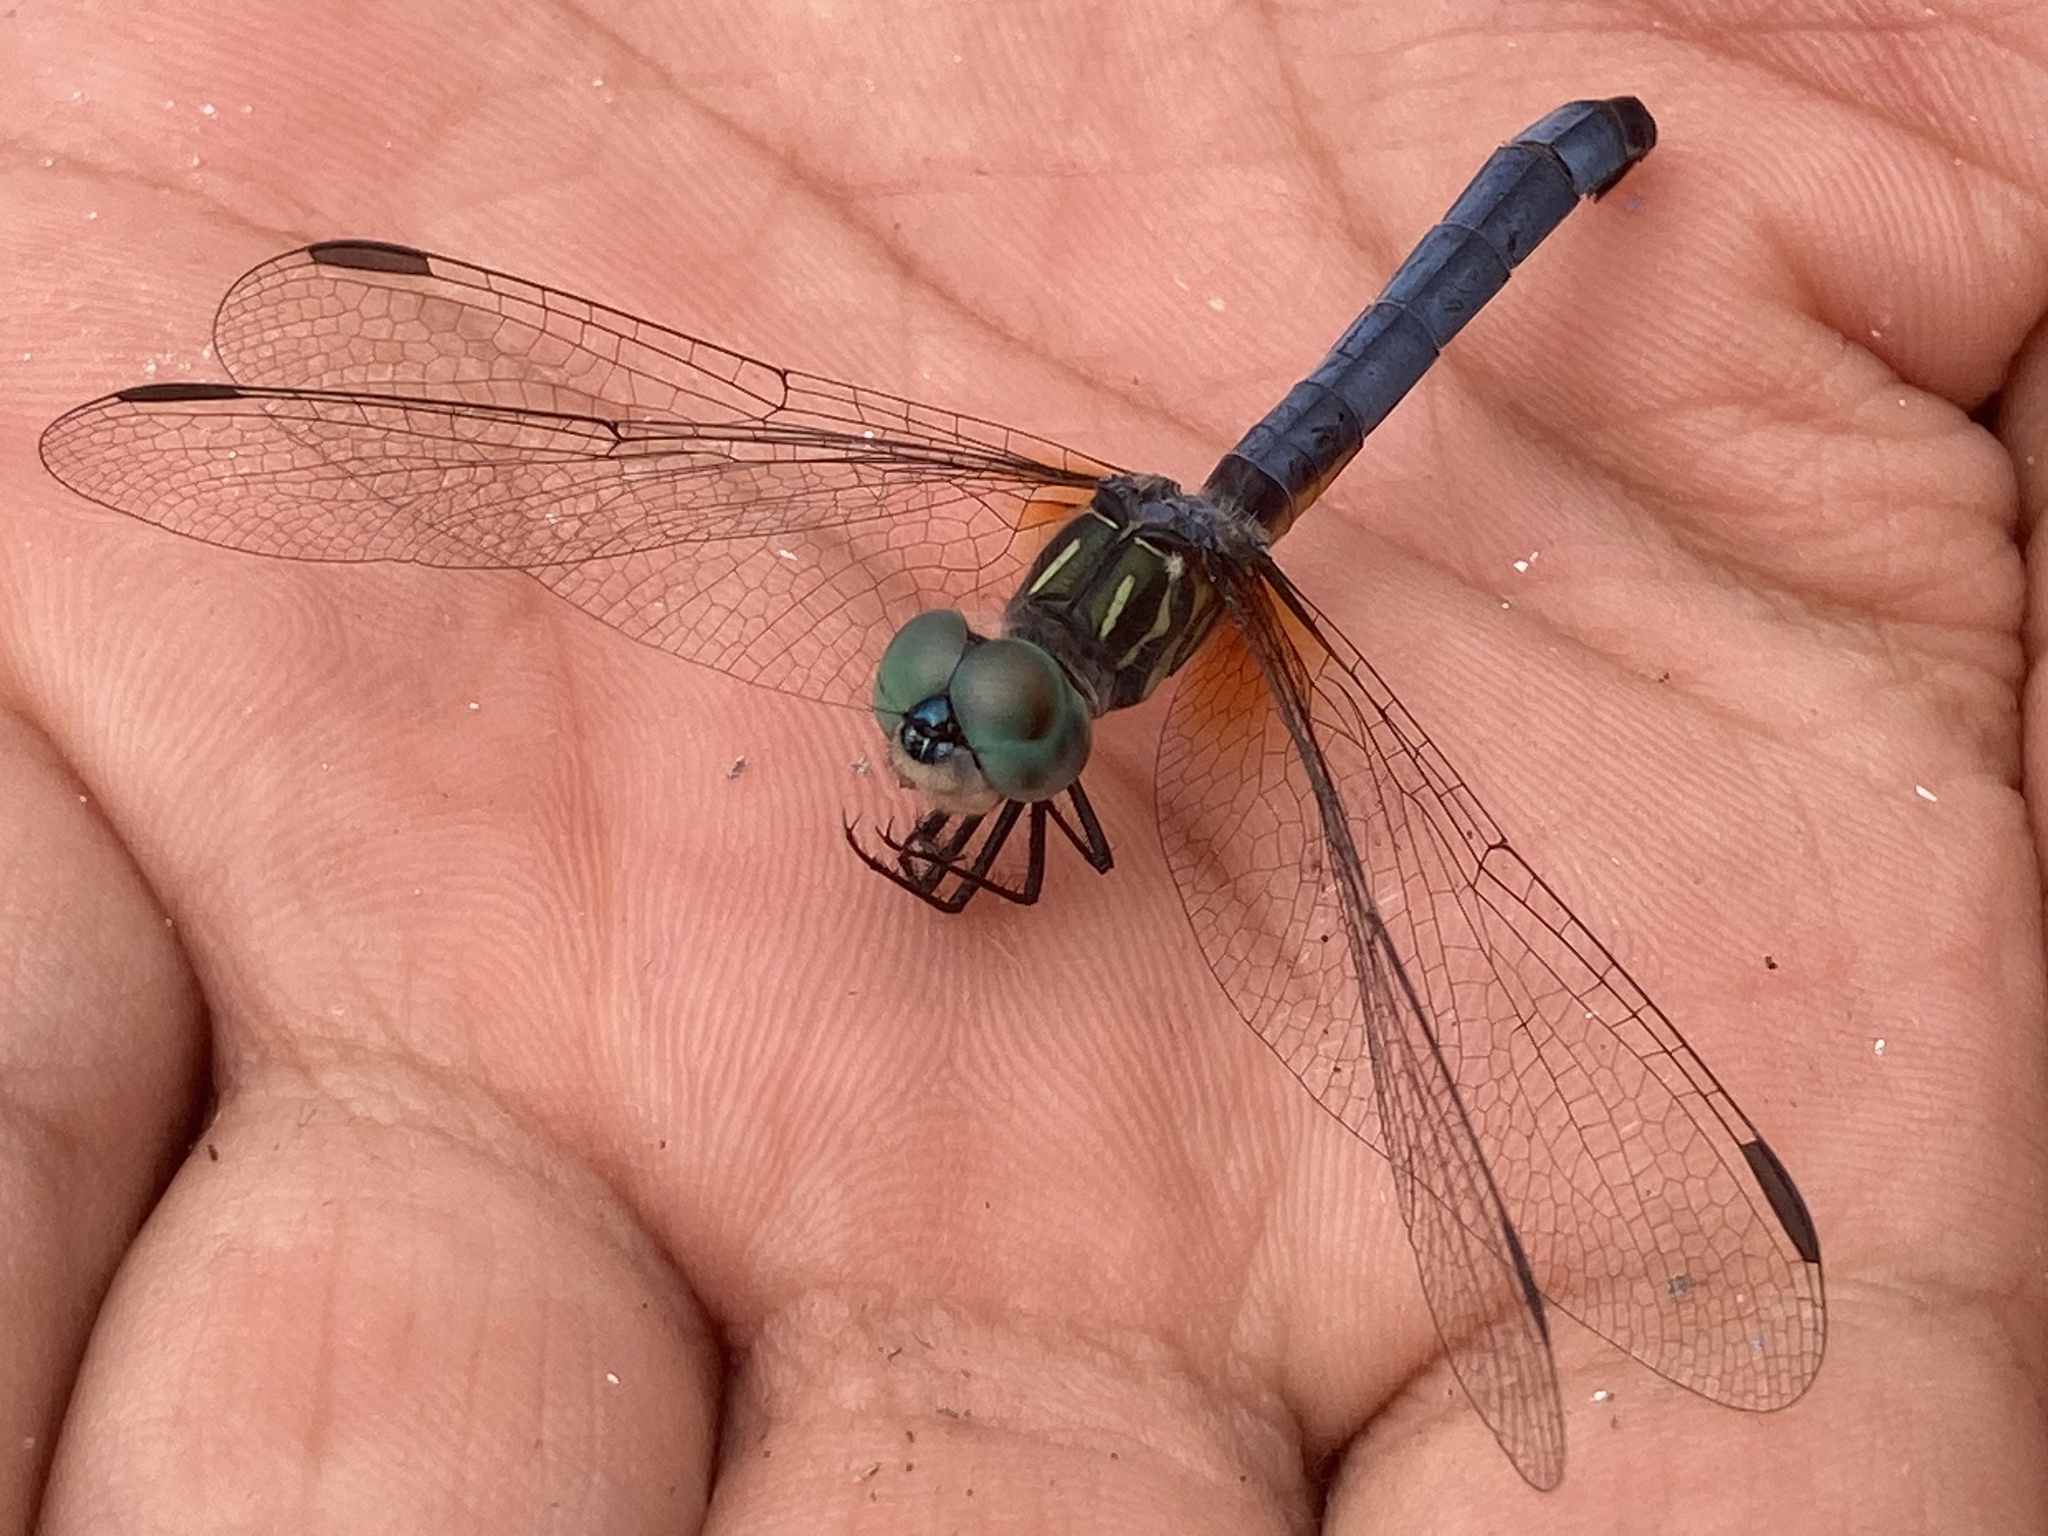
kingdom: Animalia
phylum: Arthropoda
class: Insecta
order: Odonata
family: Libellulidae
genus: Pachydiplax
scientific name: Pachydiplax longipennis
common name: Blue dasher
